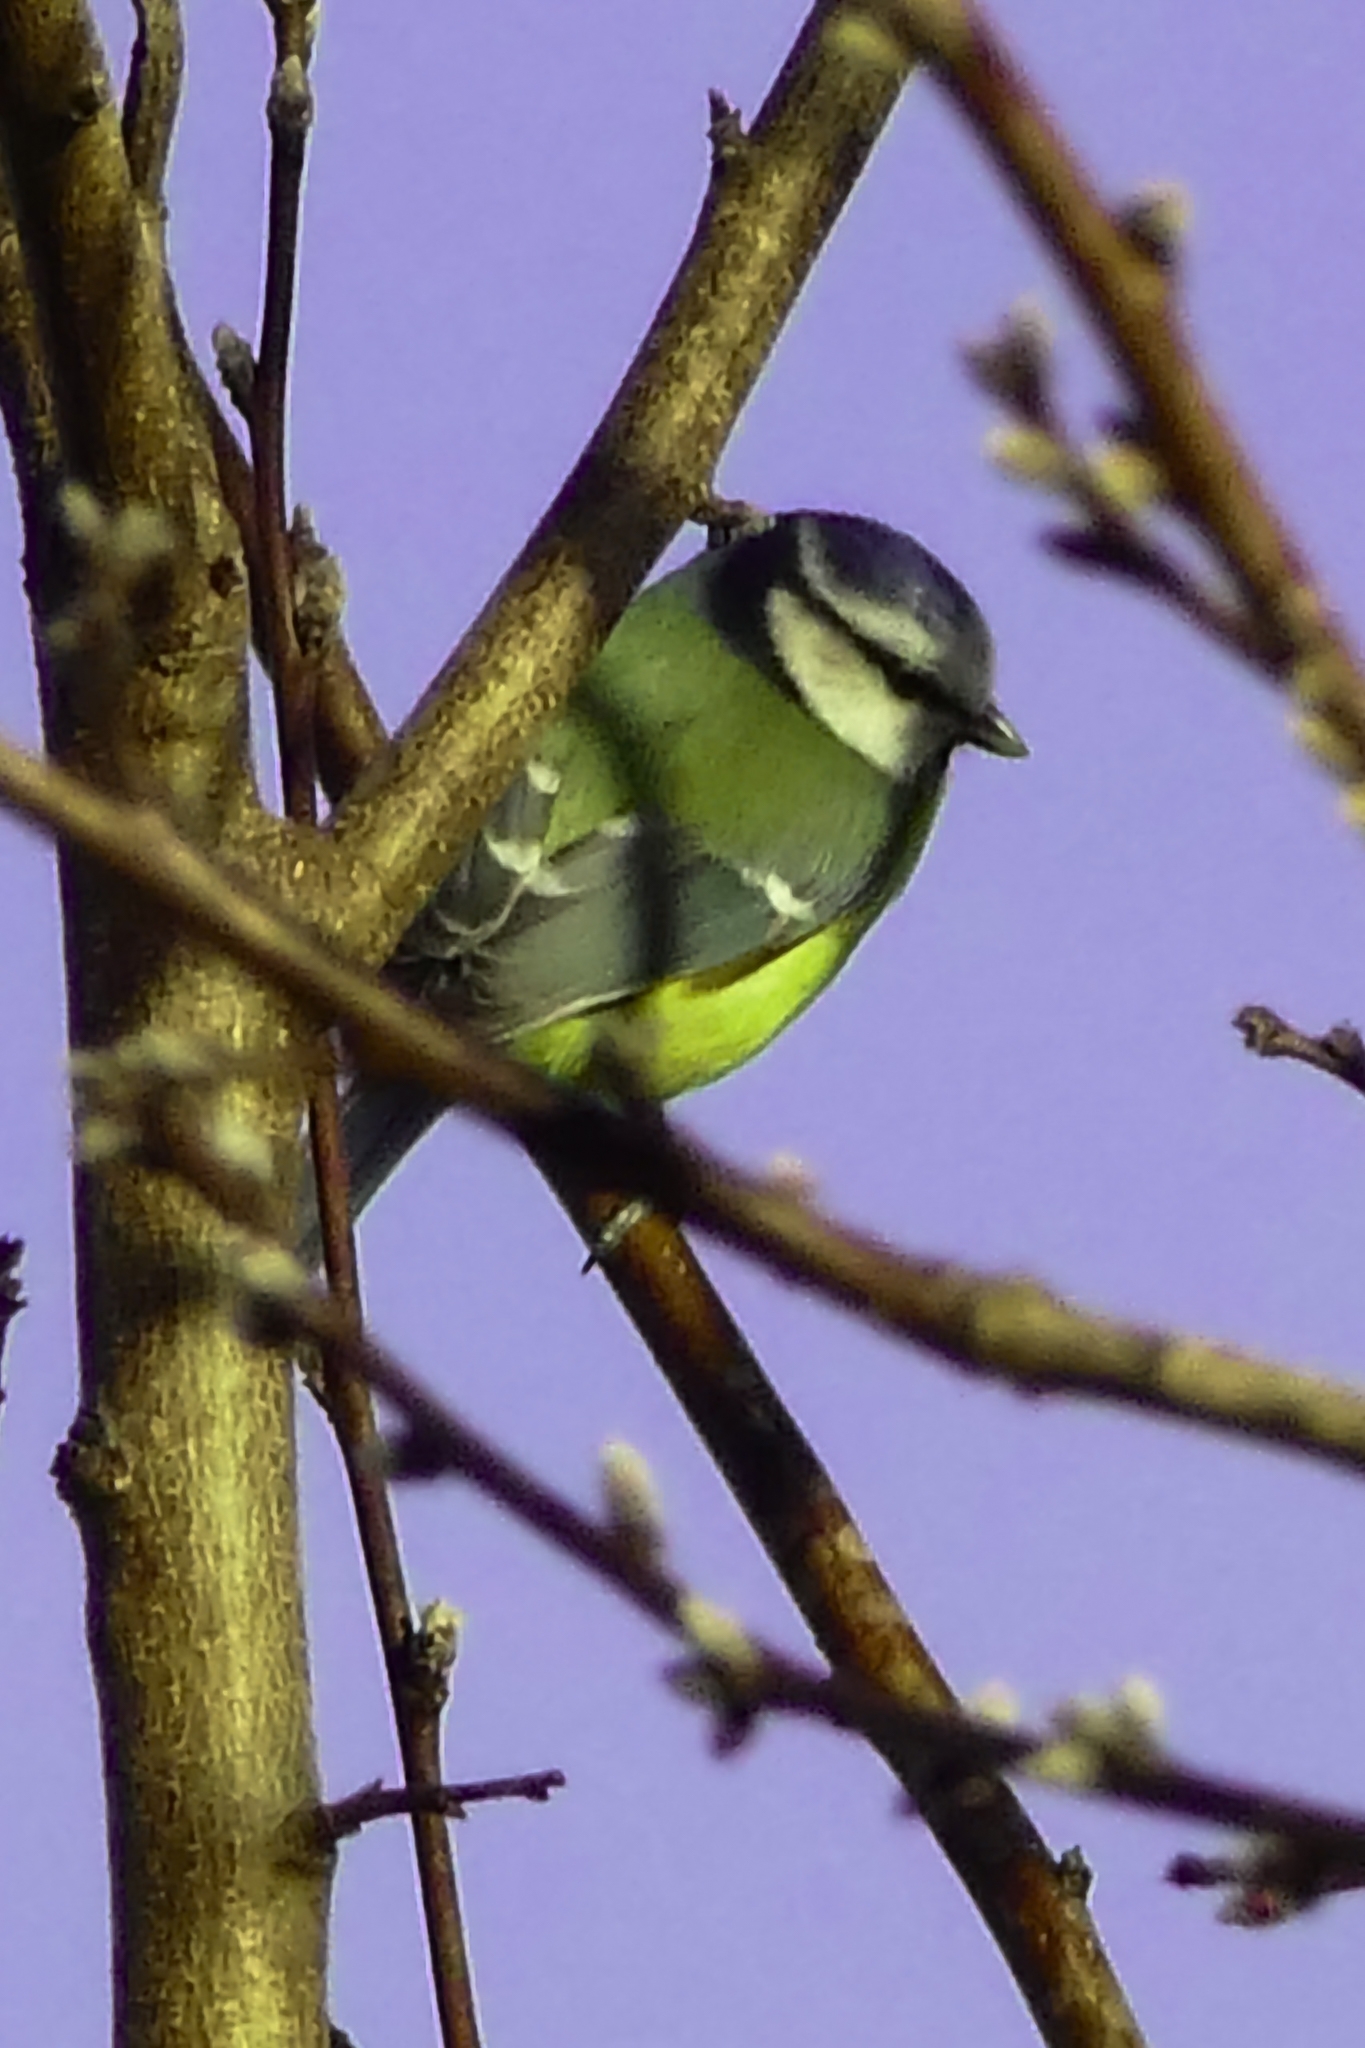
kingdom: Animalia
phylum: Chordata
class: Aves
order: Passeriformes
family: Paridae
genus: Cyanistes
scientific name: Cyanistes caeruleus
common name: Eurasian blue tit
